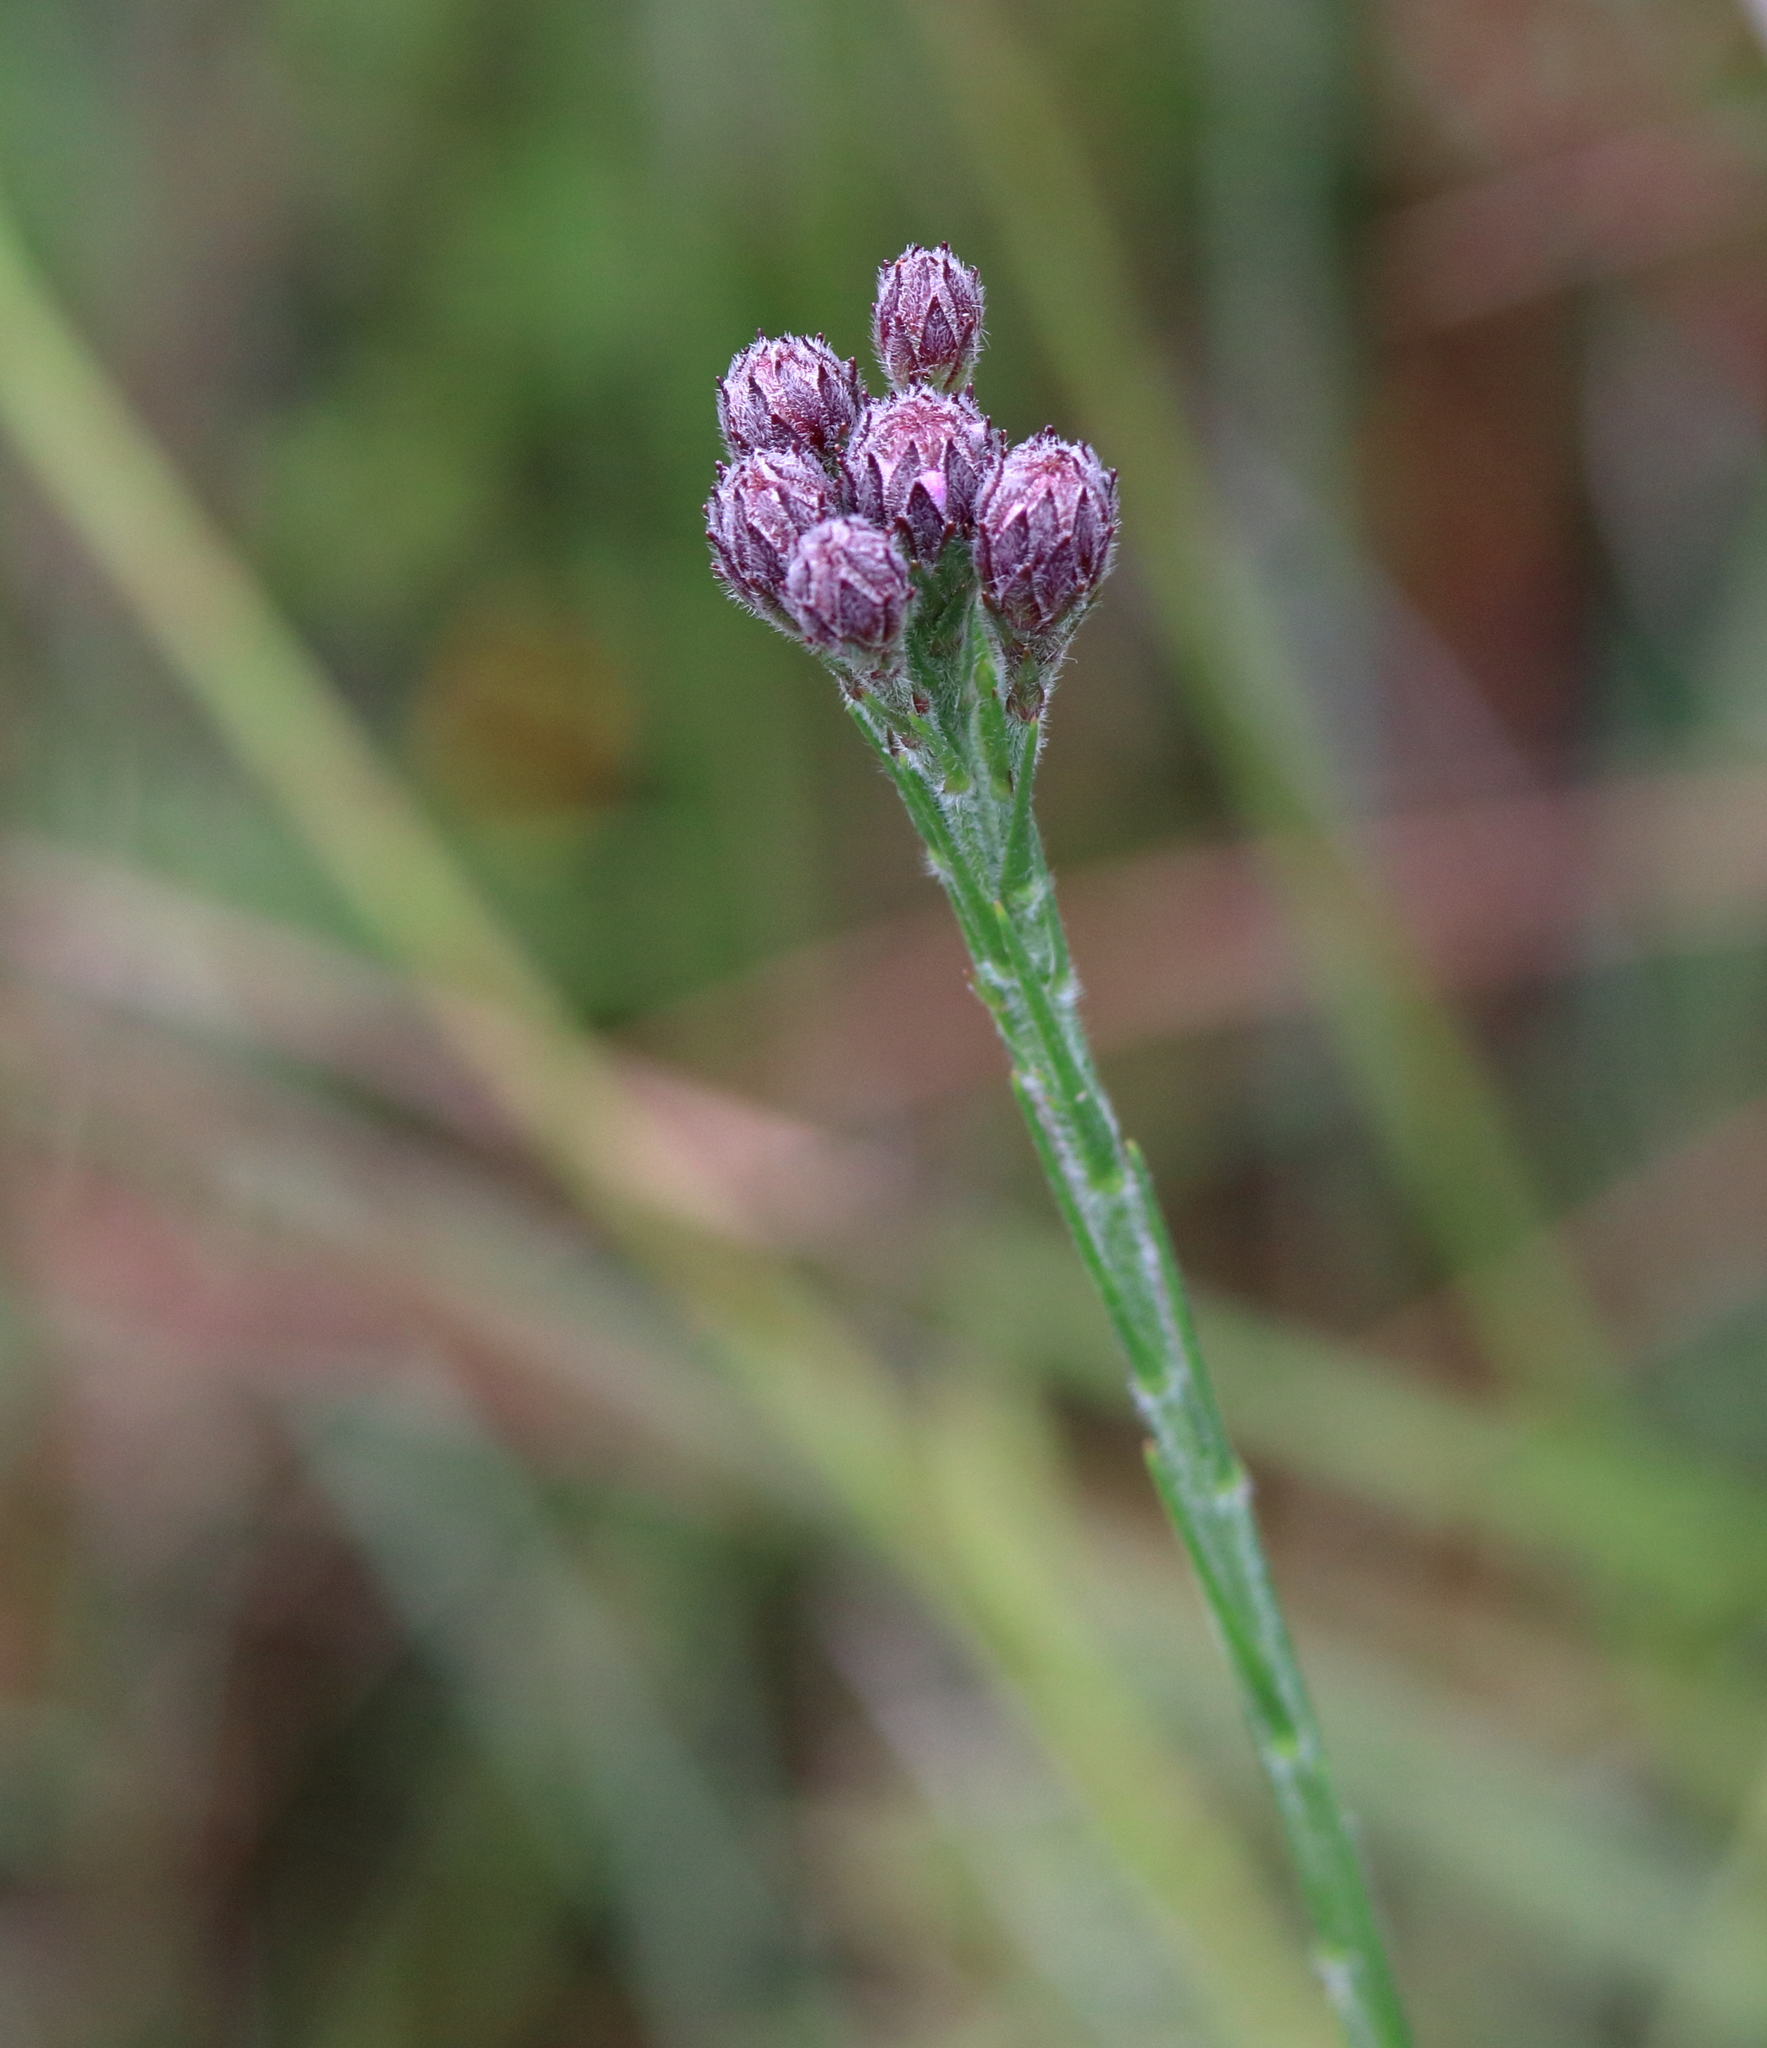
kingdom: Plantae
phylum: Tracheophyta
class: Magnoliopsida
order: Asterales
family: Asteraceae
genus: Carphephorus
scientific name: Carphephorus pseudoliatris
